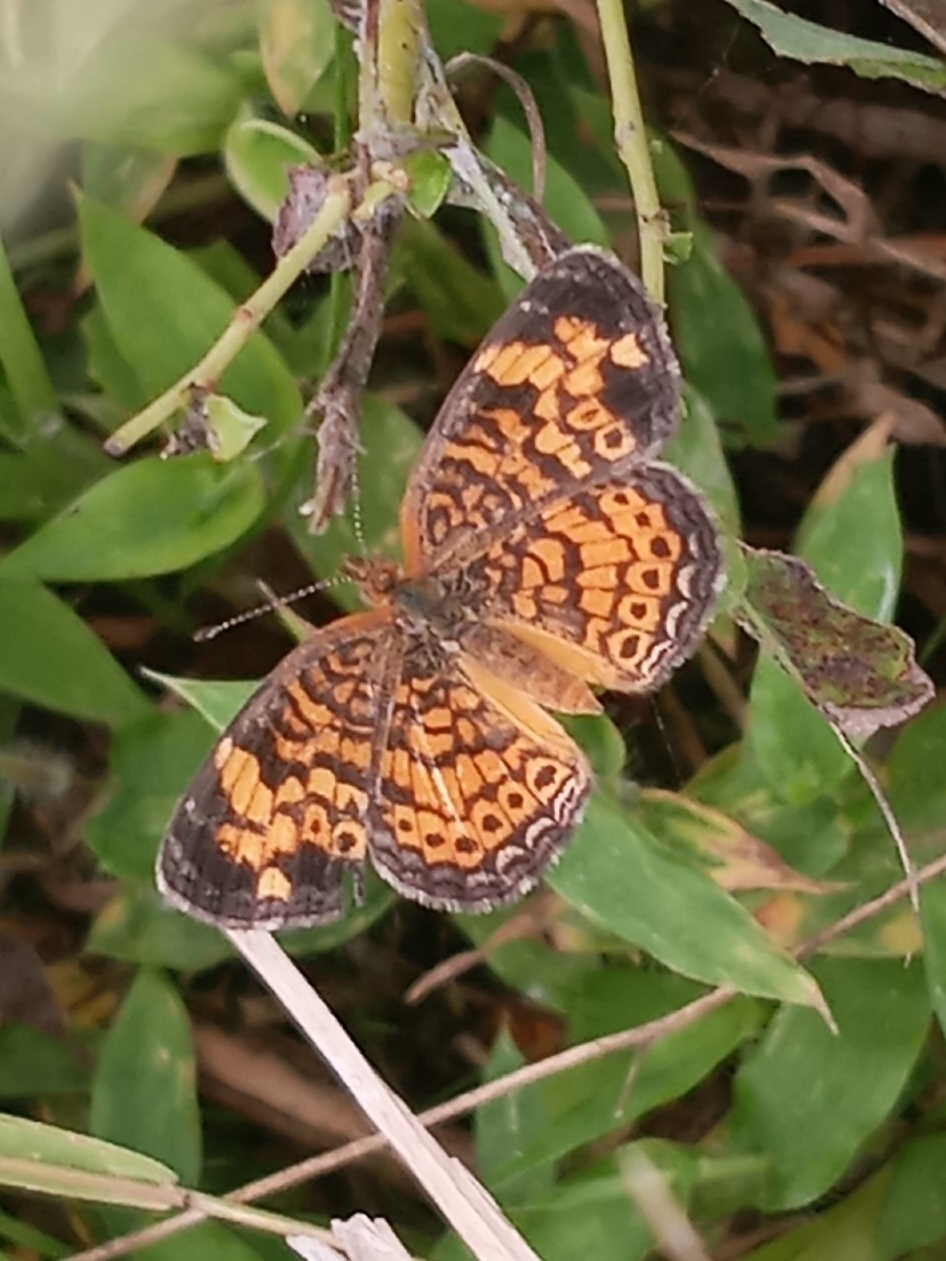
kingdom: Animalia
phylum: Arthropoda
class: Insecta
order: Lepidoptera
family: Nymphalidae
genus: Phyciodes
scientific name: Phyciodes tharos
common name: Pearl crescent
